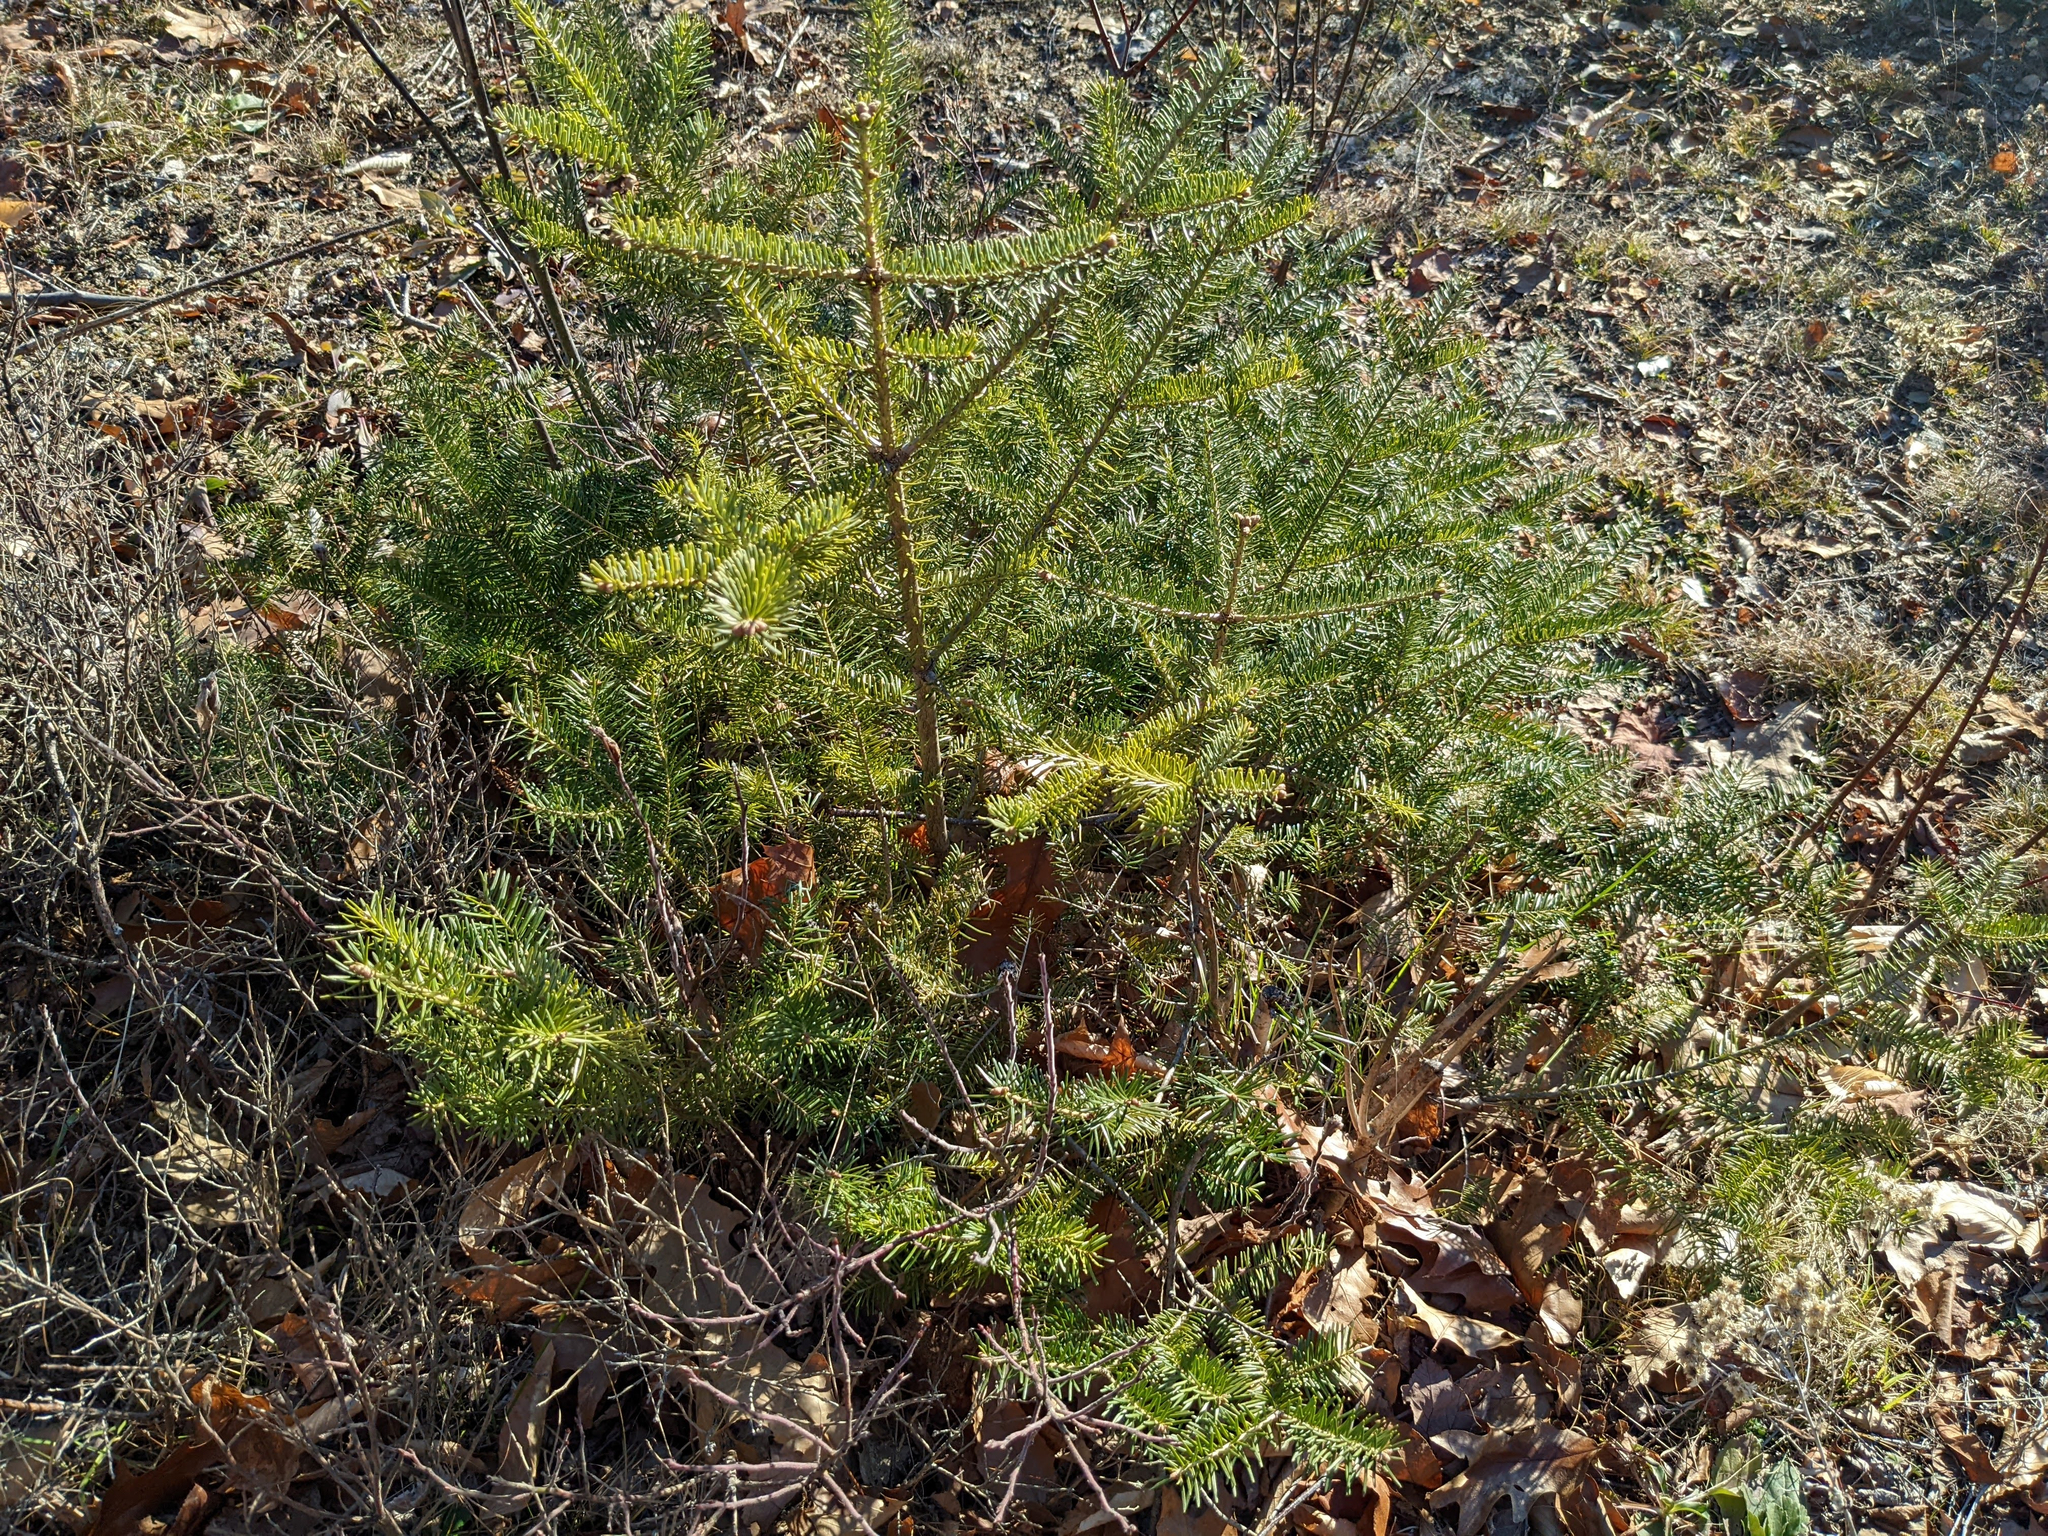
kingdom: Plantae
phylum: Tracheophyta
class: Pinopsida
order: Pinales
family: Pinaceae
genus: Abies
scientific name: Abies balsamea
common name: Balsam fir
